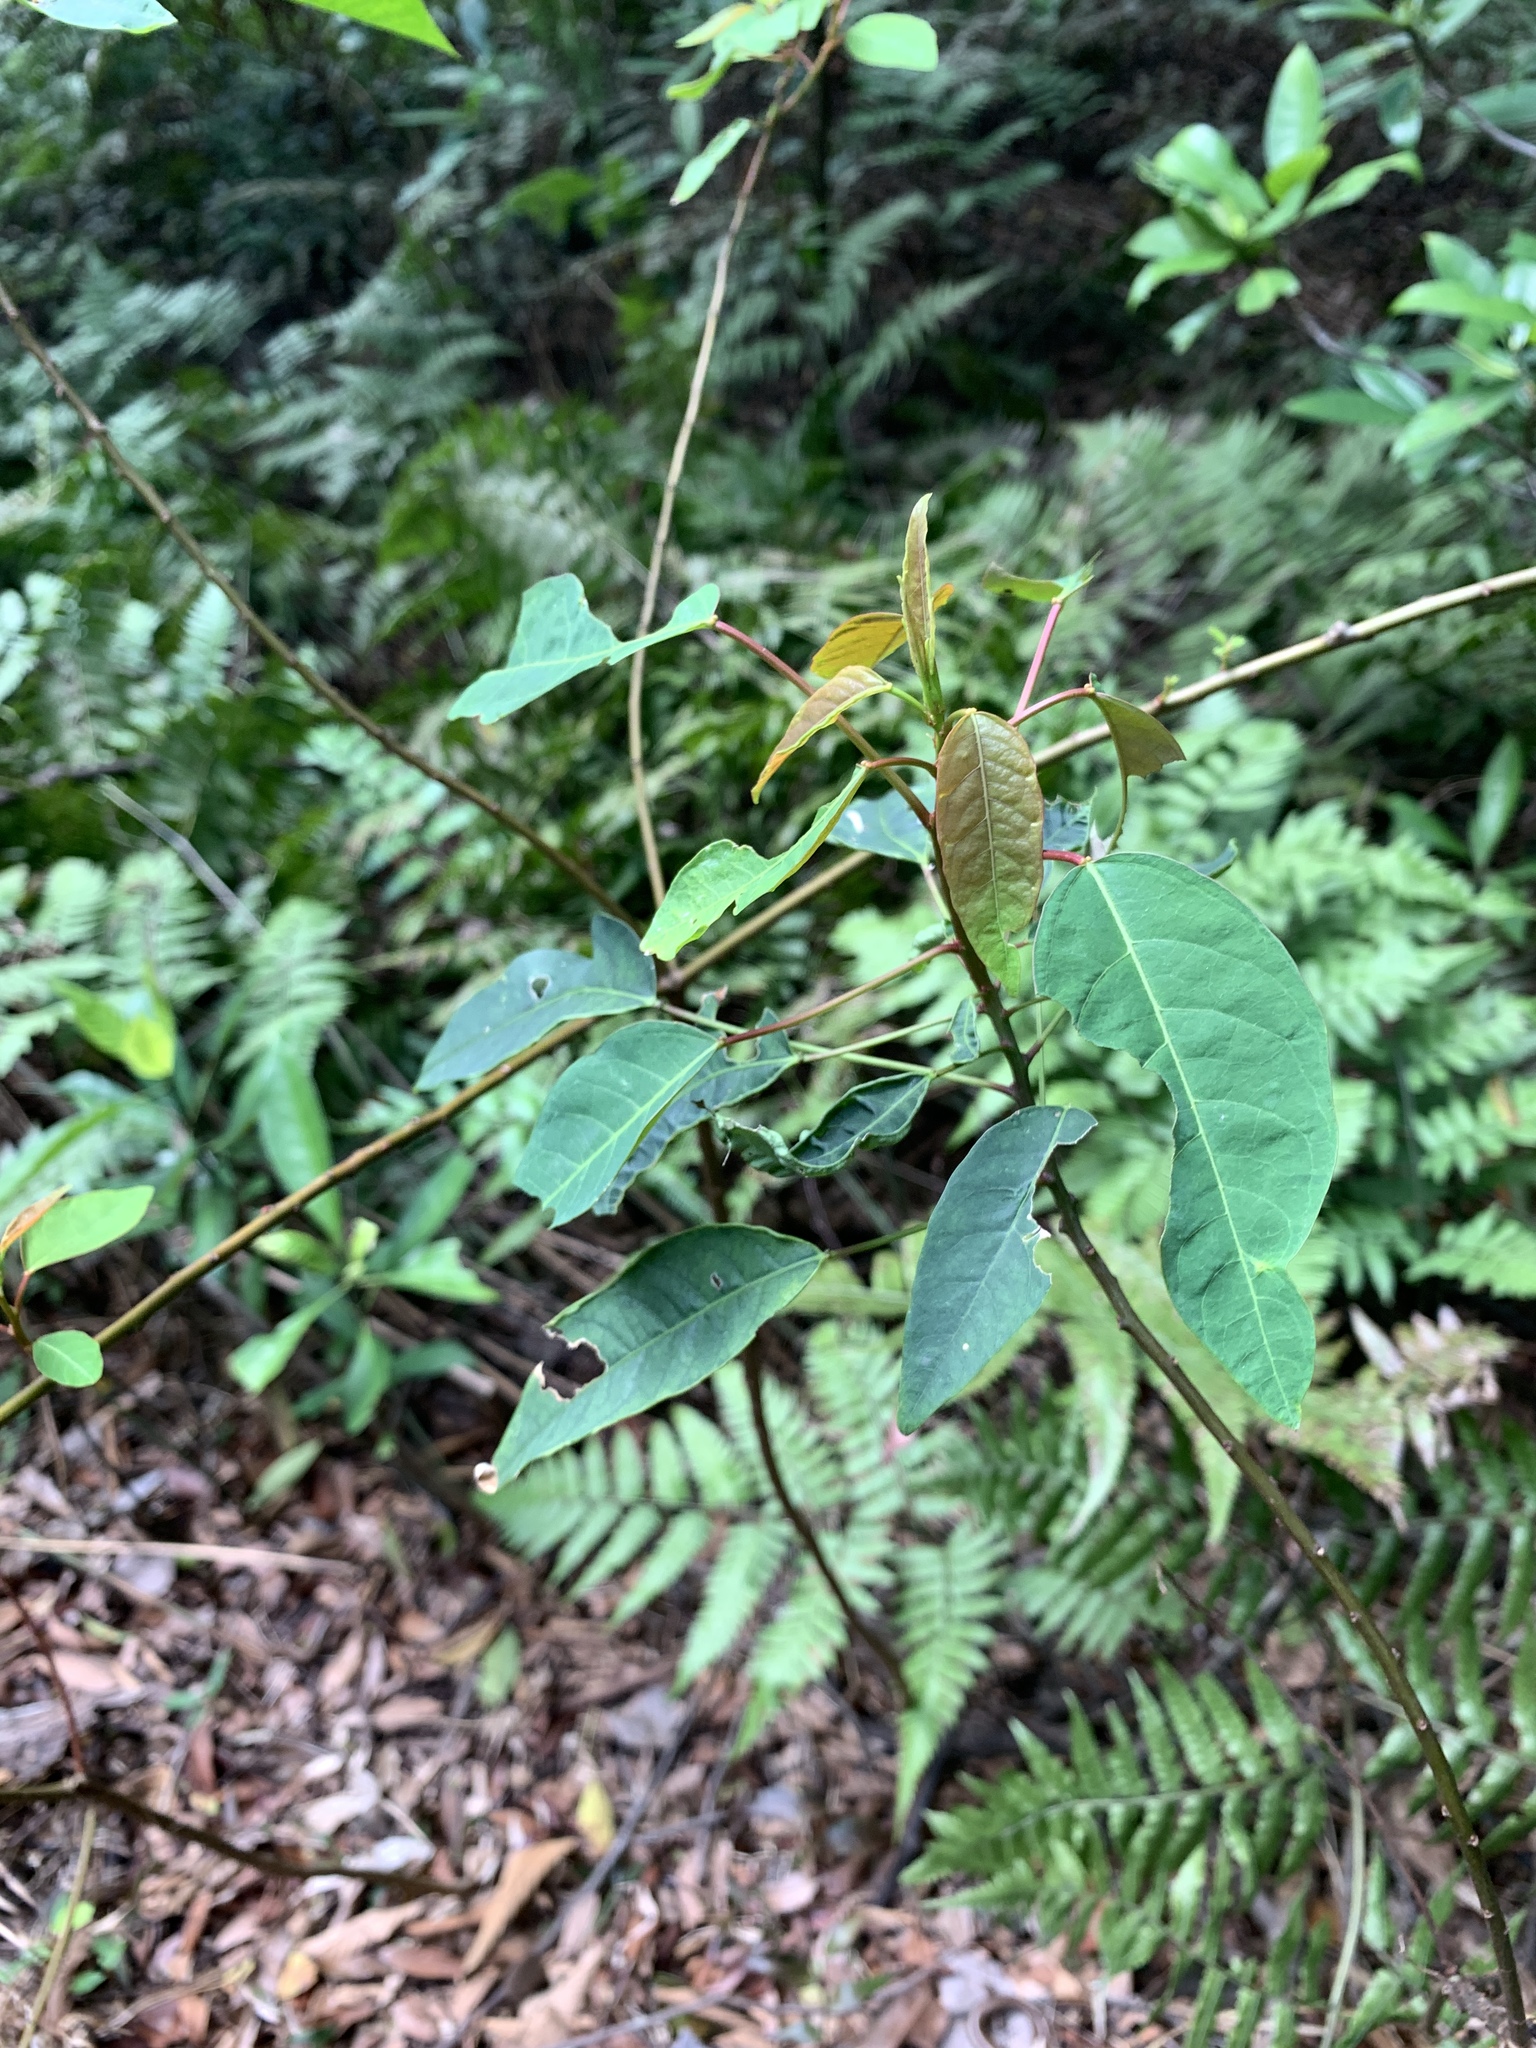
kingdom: Plantae
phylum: Tracheophyta
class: Magnoliopsida
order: Malpighiales
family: Euphorbiaceae
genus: Triadica
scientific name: Triadica cochinchinensis
